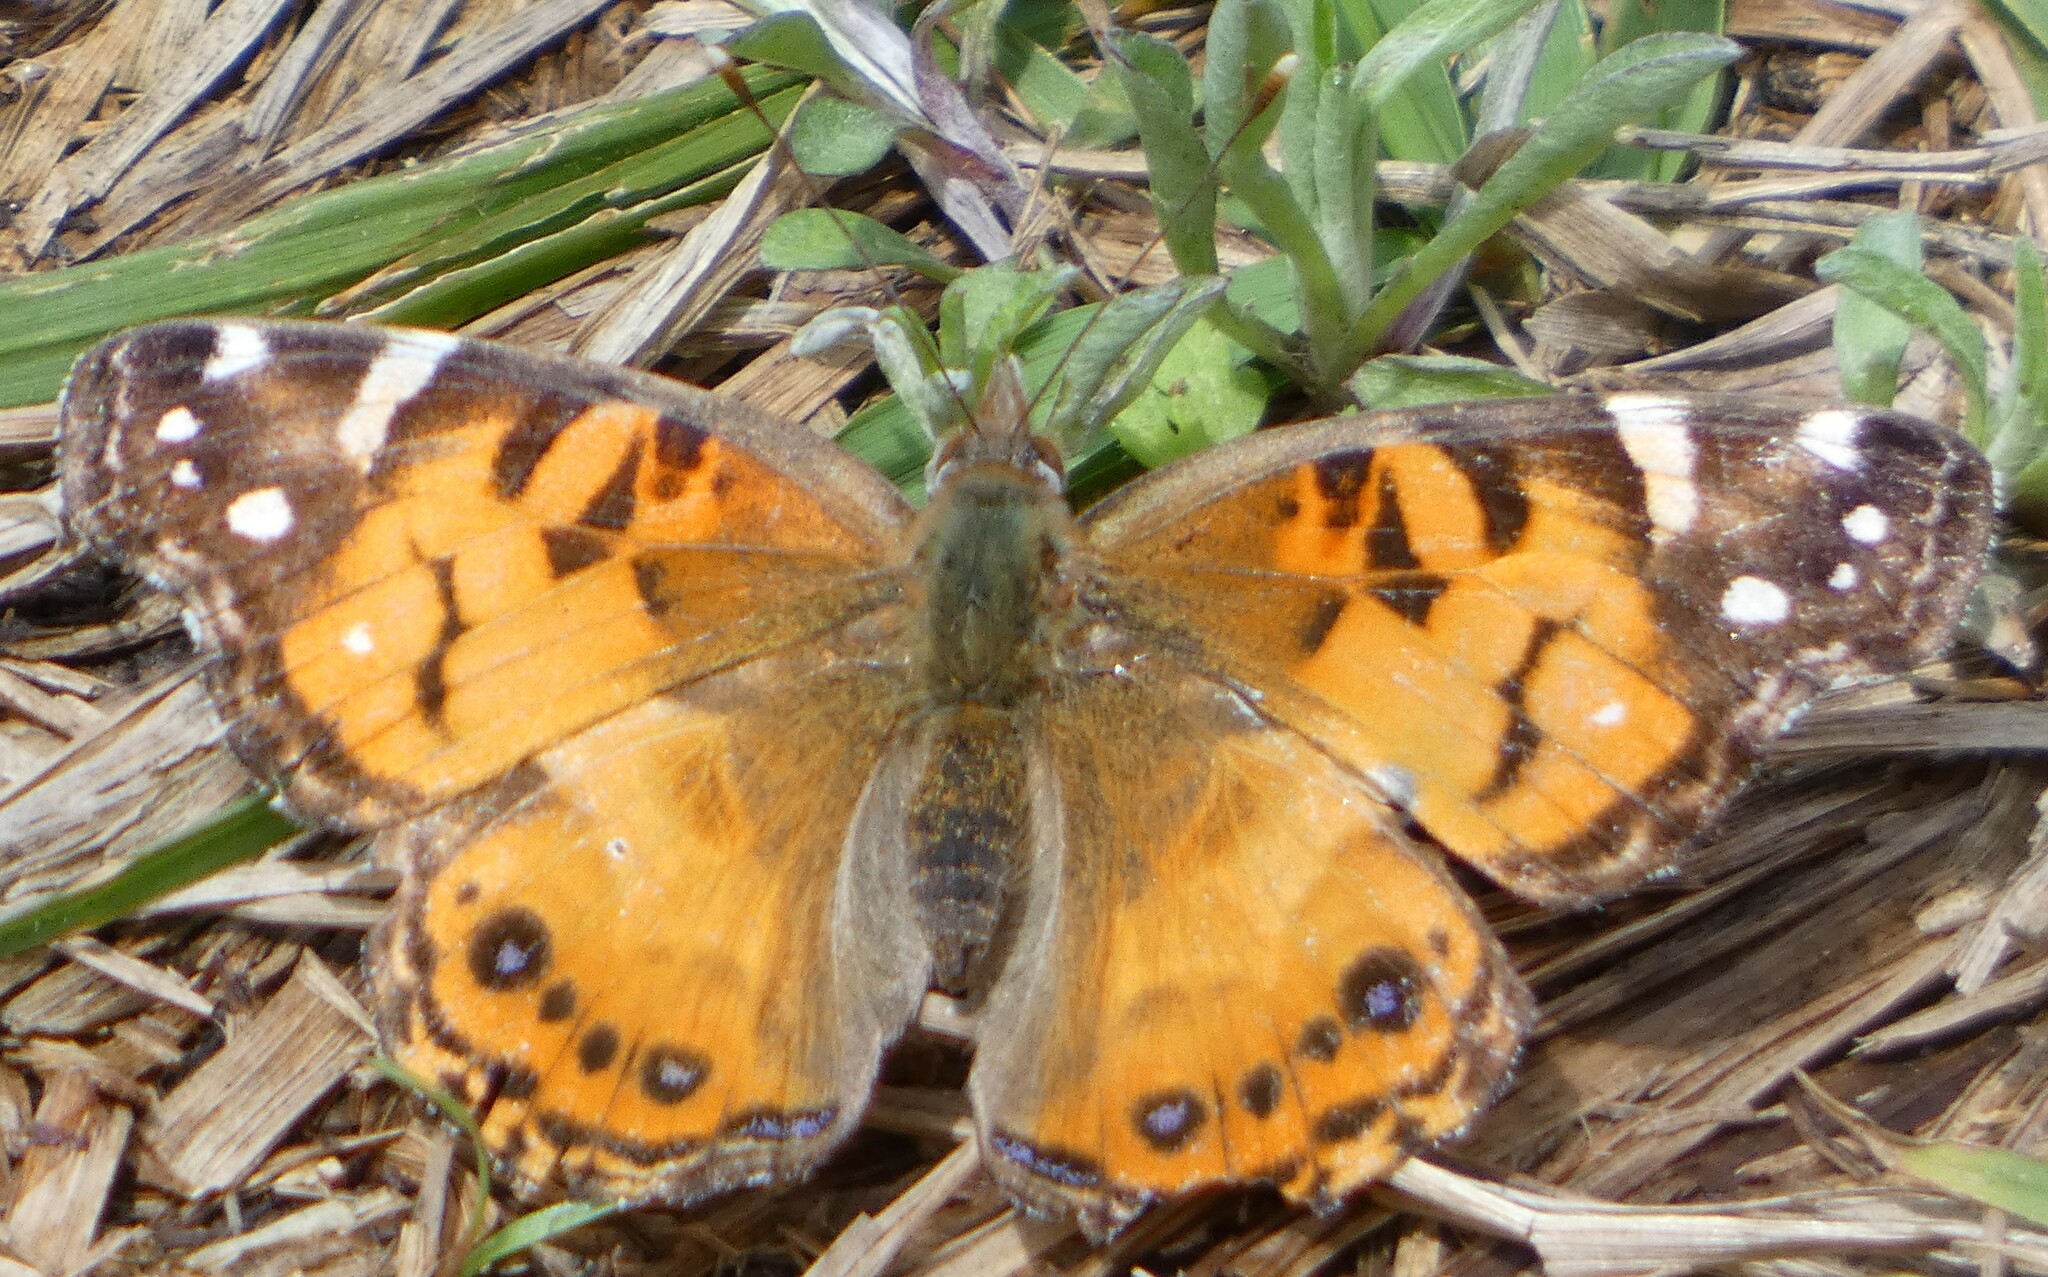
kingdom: Animalia
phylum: Arthropoda
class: Insecta
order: Lepidoptera
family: Nymphalidae
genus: Vanessa
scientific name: Vanessa virginiensis
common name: American lady
